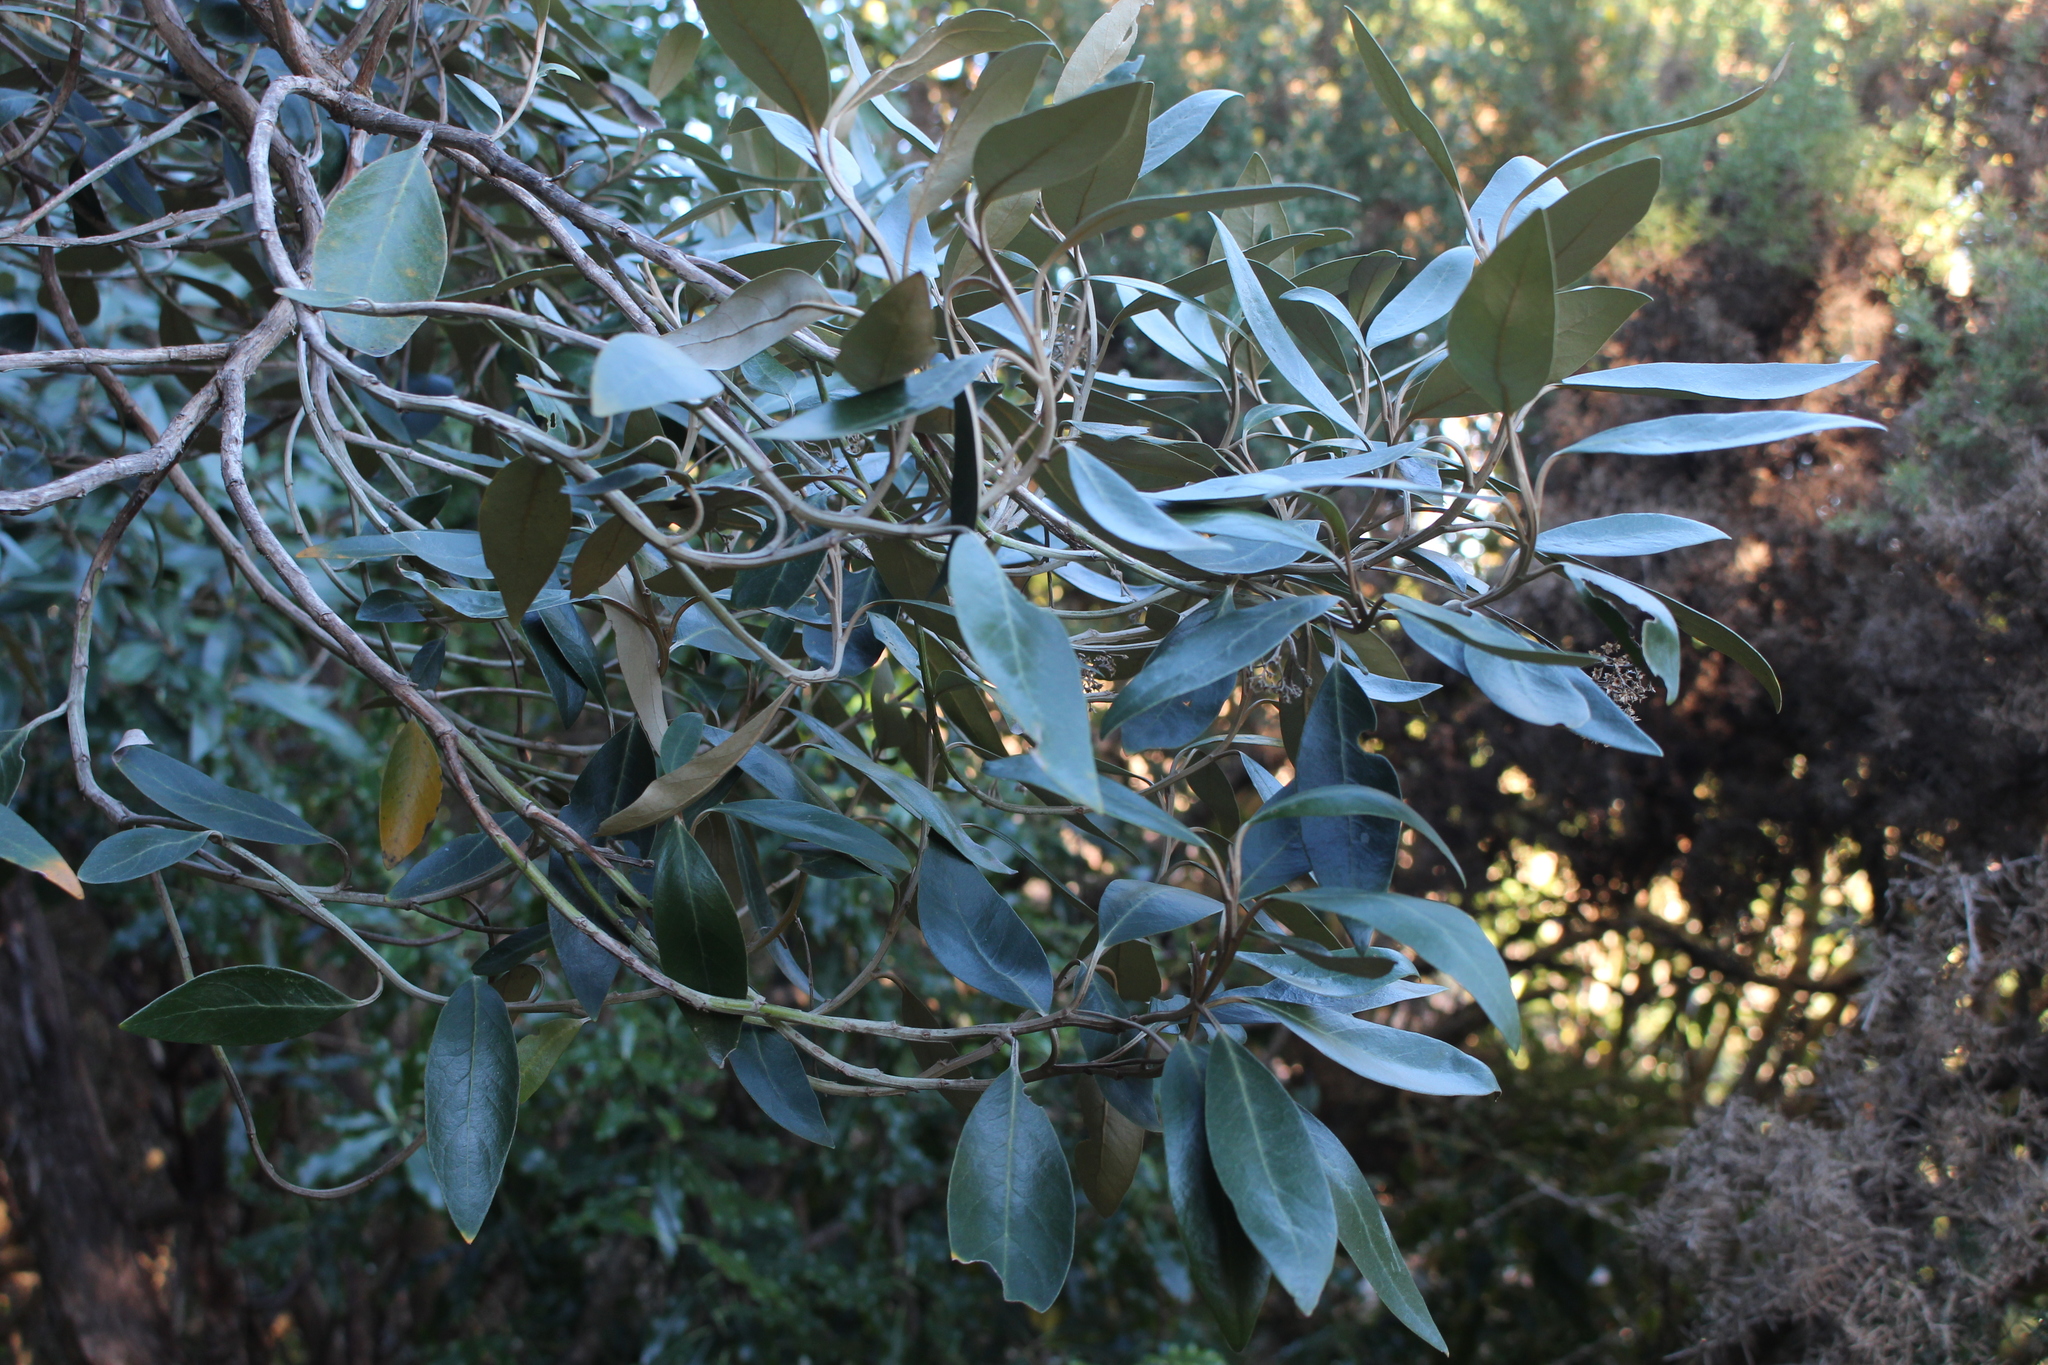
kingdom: Plantae
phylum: Tracheophyta
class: Magnoliopsida
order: Asterales
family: Asteraceae
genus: Olearia
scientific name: Olearia avicenniifolia
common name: Mangrove-leaf daisybush
